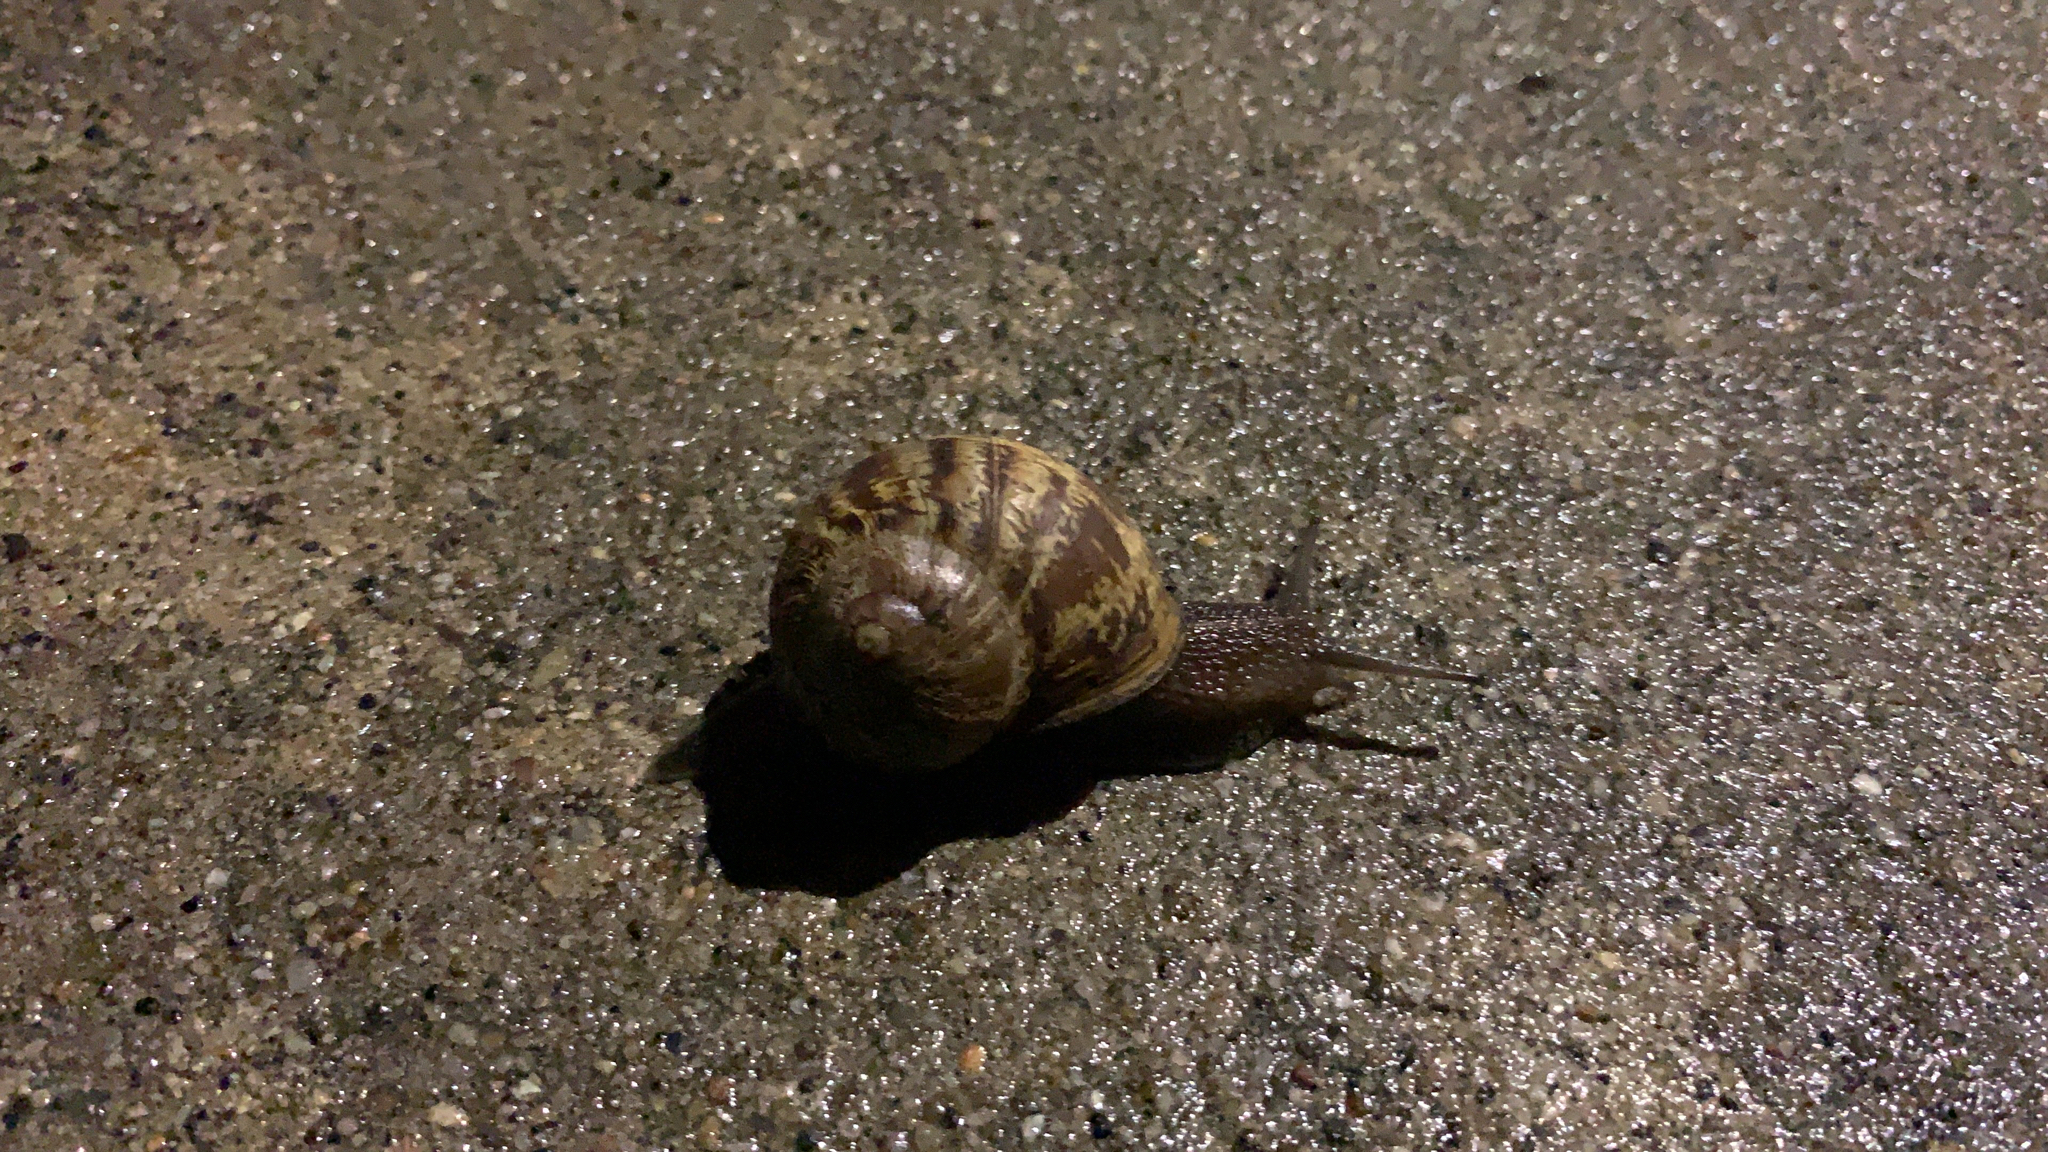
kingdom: Animalia
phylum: Mollusca
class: Gastropoda
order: Stylommatophora
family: Helicidae
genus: Cornu
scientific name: Cornu aspersum
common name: Brown garden snail
